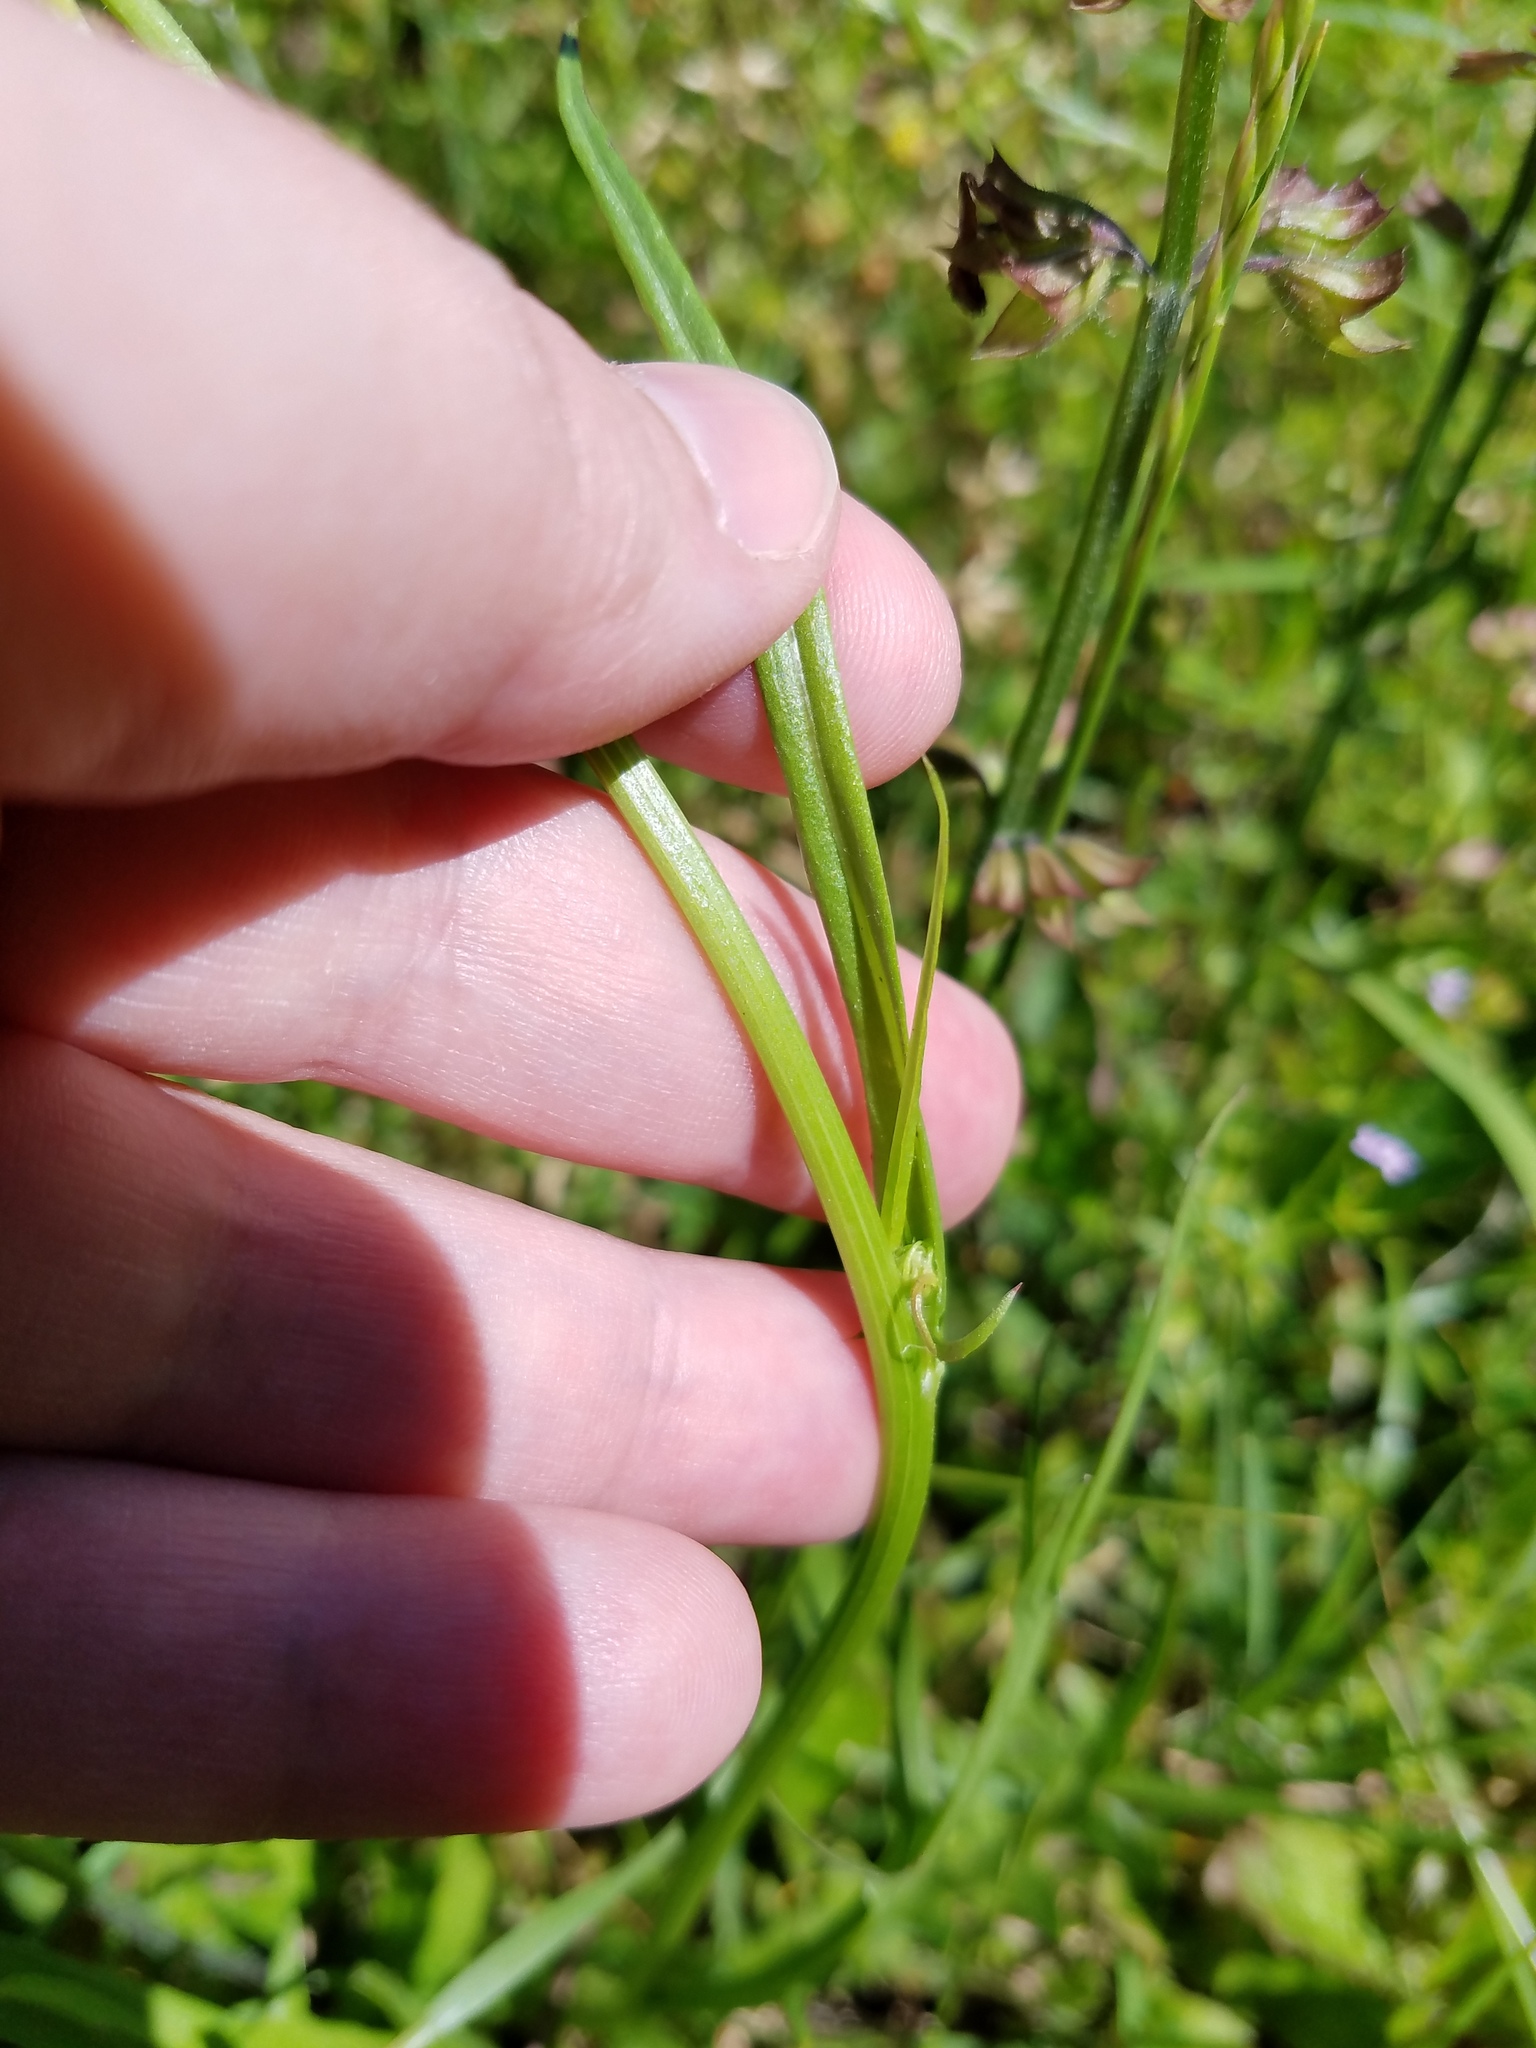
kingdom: Plantae
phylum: Tracheophyta
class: Magnoliopsida
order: Asterales
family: Asteraceae
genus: Pyrrhopappus
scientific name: Pyrrhopappus carolinianus
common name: Carolina desert-chicory
